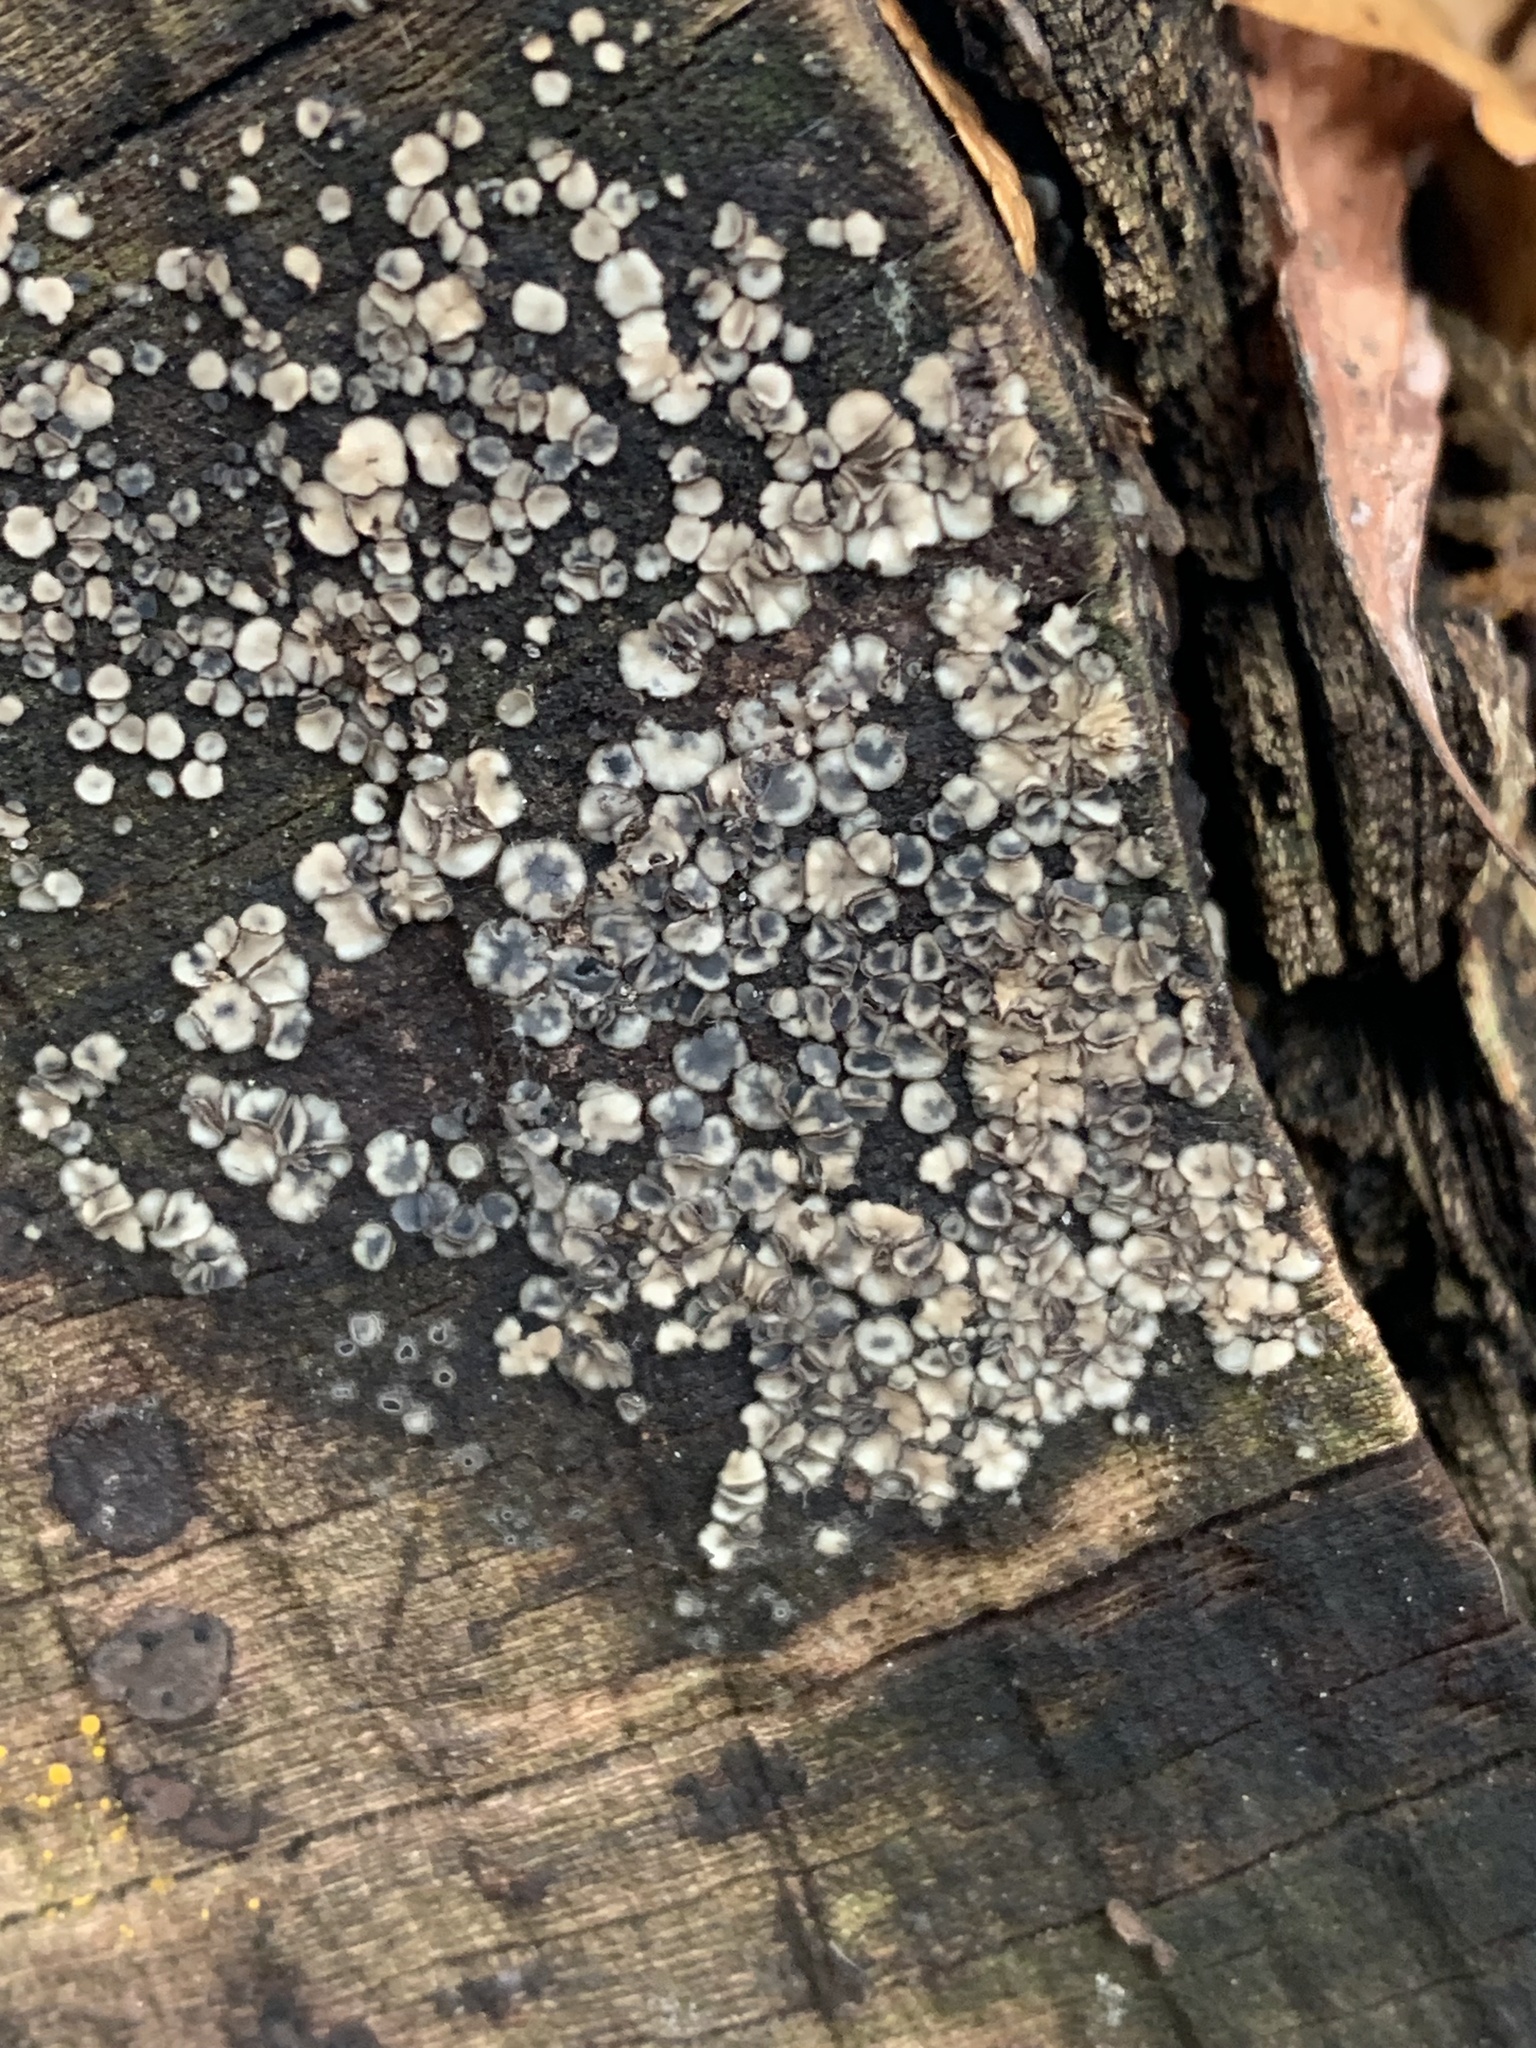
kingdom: Fungi
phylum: Ascomycota
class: Leotiomycetes
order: Helotiales
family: Mollisiaceae
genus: Mollisia
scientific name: Mollisia cinerea
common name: Common grey disco
